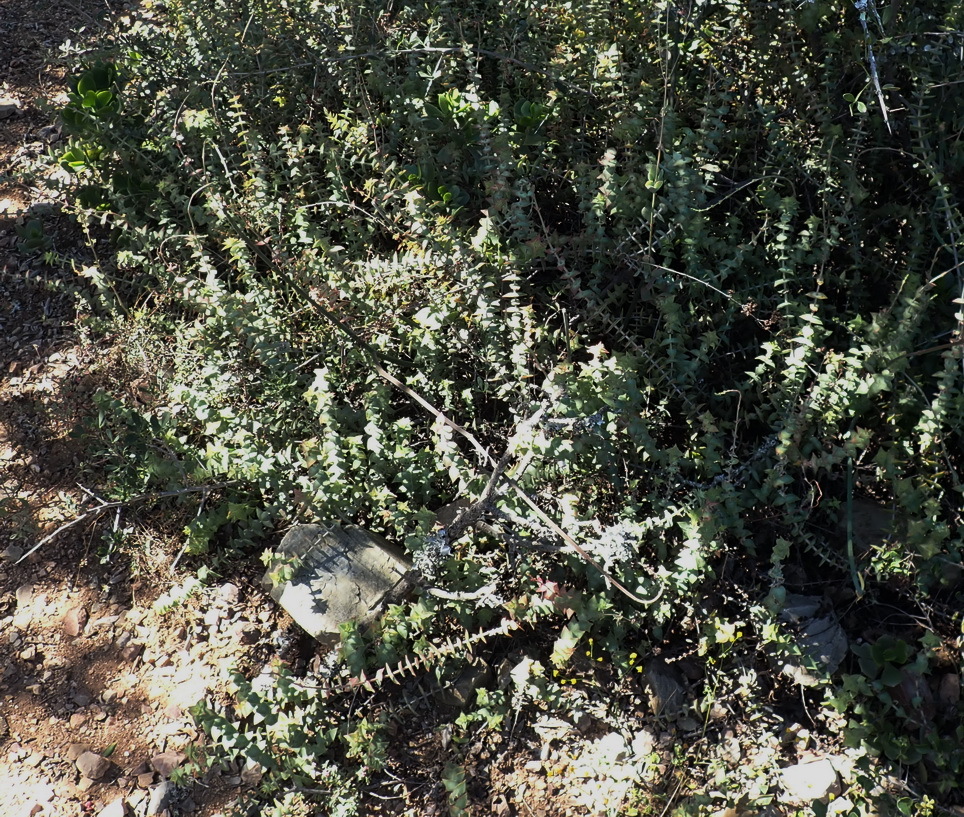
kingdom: Plantae
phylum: Tracheophyta
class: Magnoliopsida
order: Saxifragales
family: Crassulaceae
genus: Crassula
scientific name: Crassula perforata
